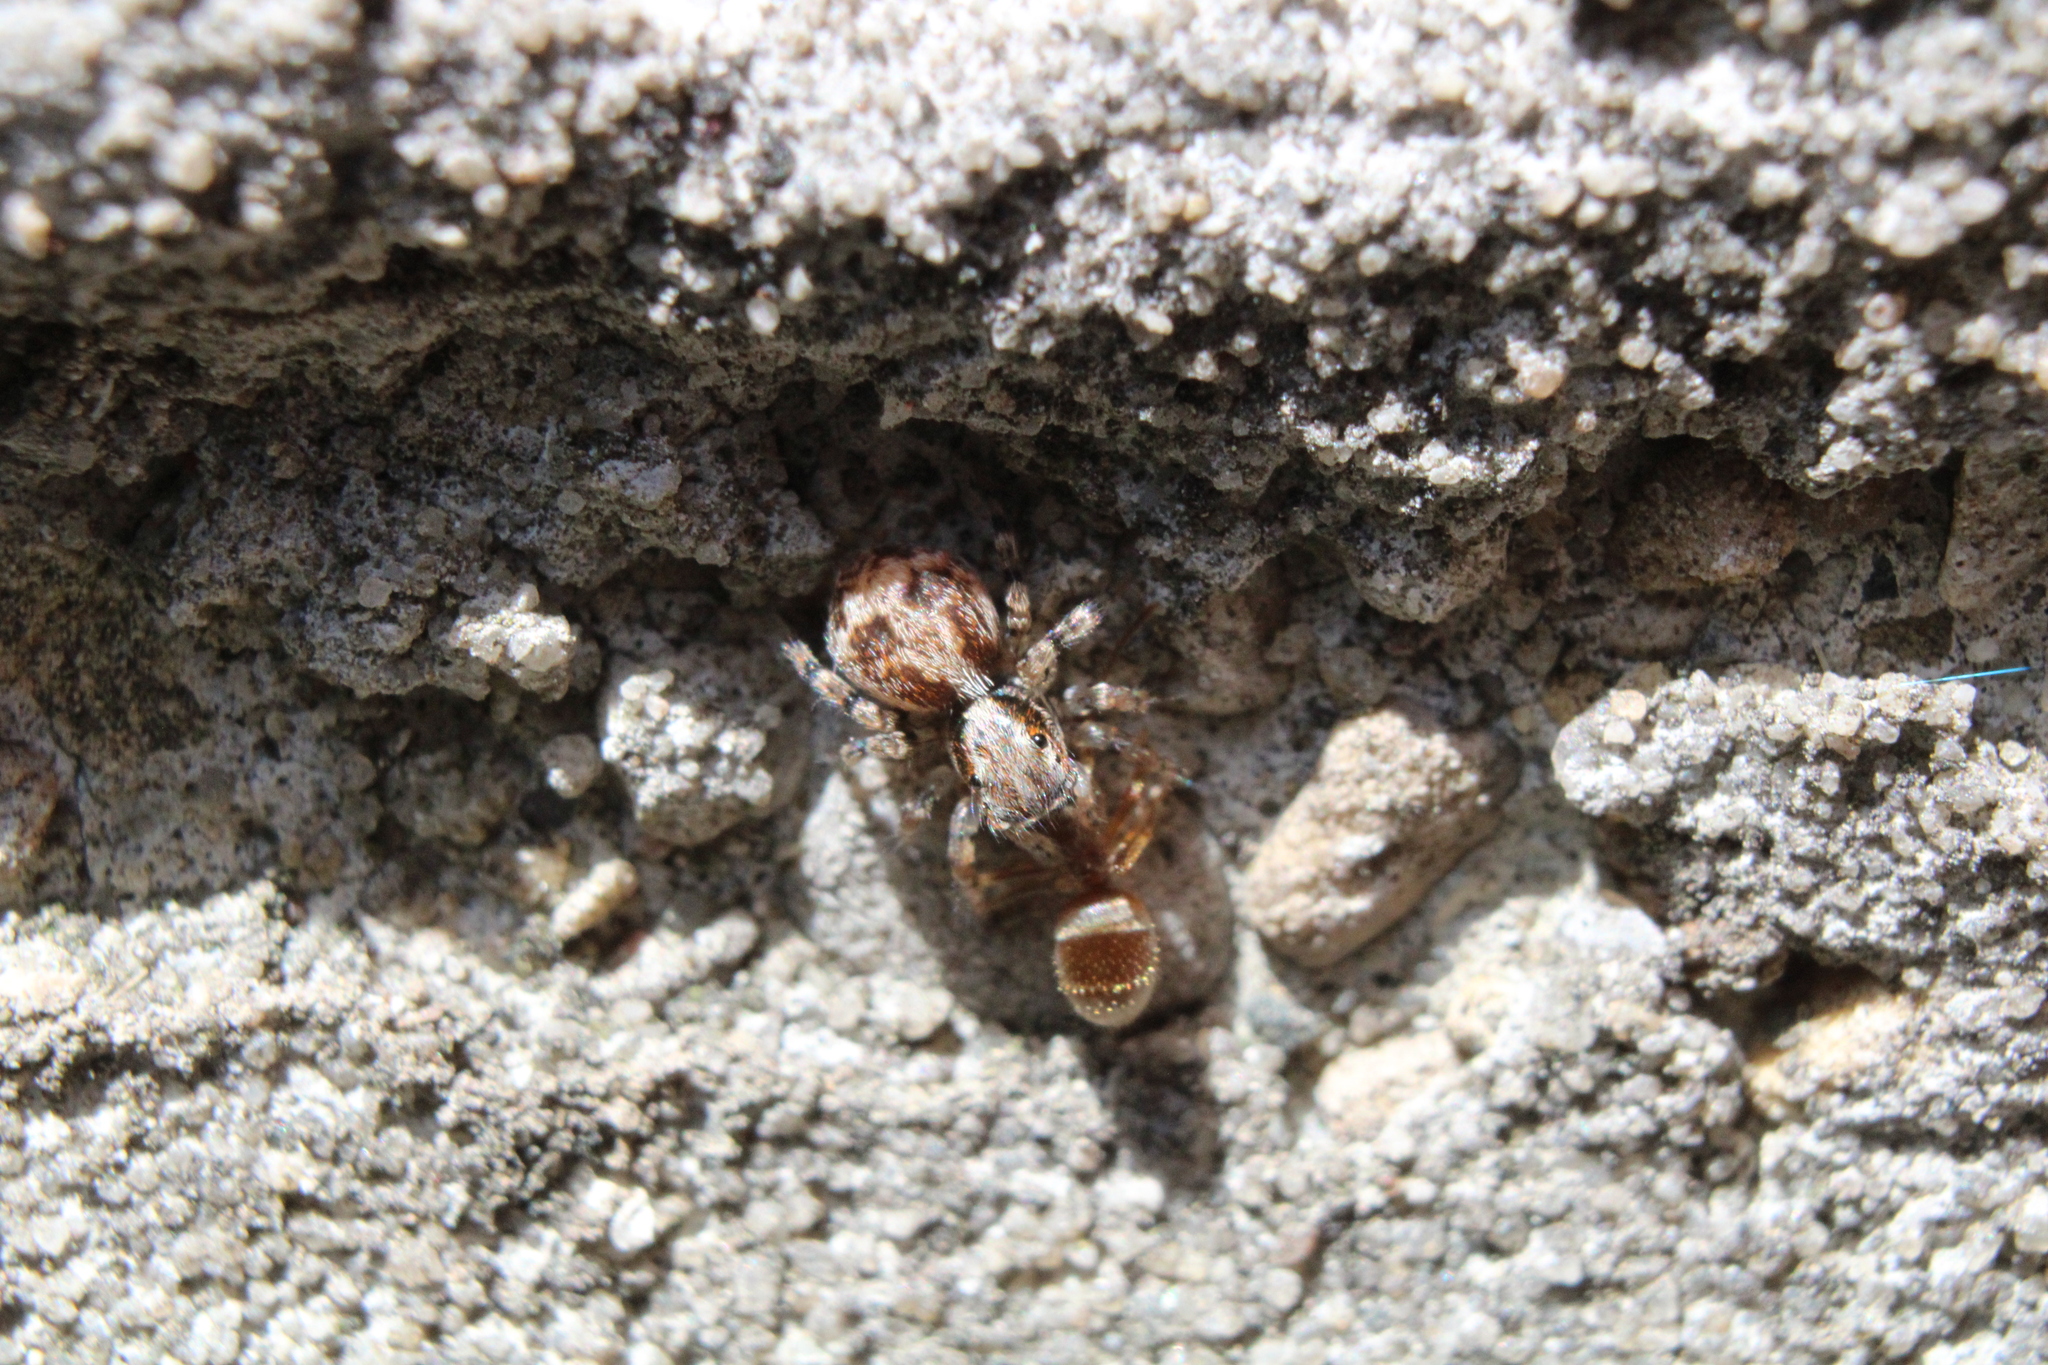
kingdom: Animalia
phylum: Arthropoda
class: Arachnida
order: Araneae
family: Salticidae
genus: Naphrys
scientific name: Naphrys pulex
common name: Flea jumping spider
